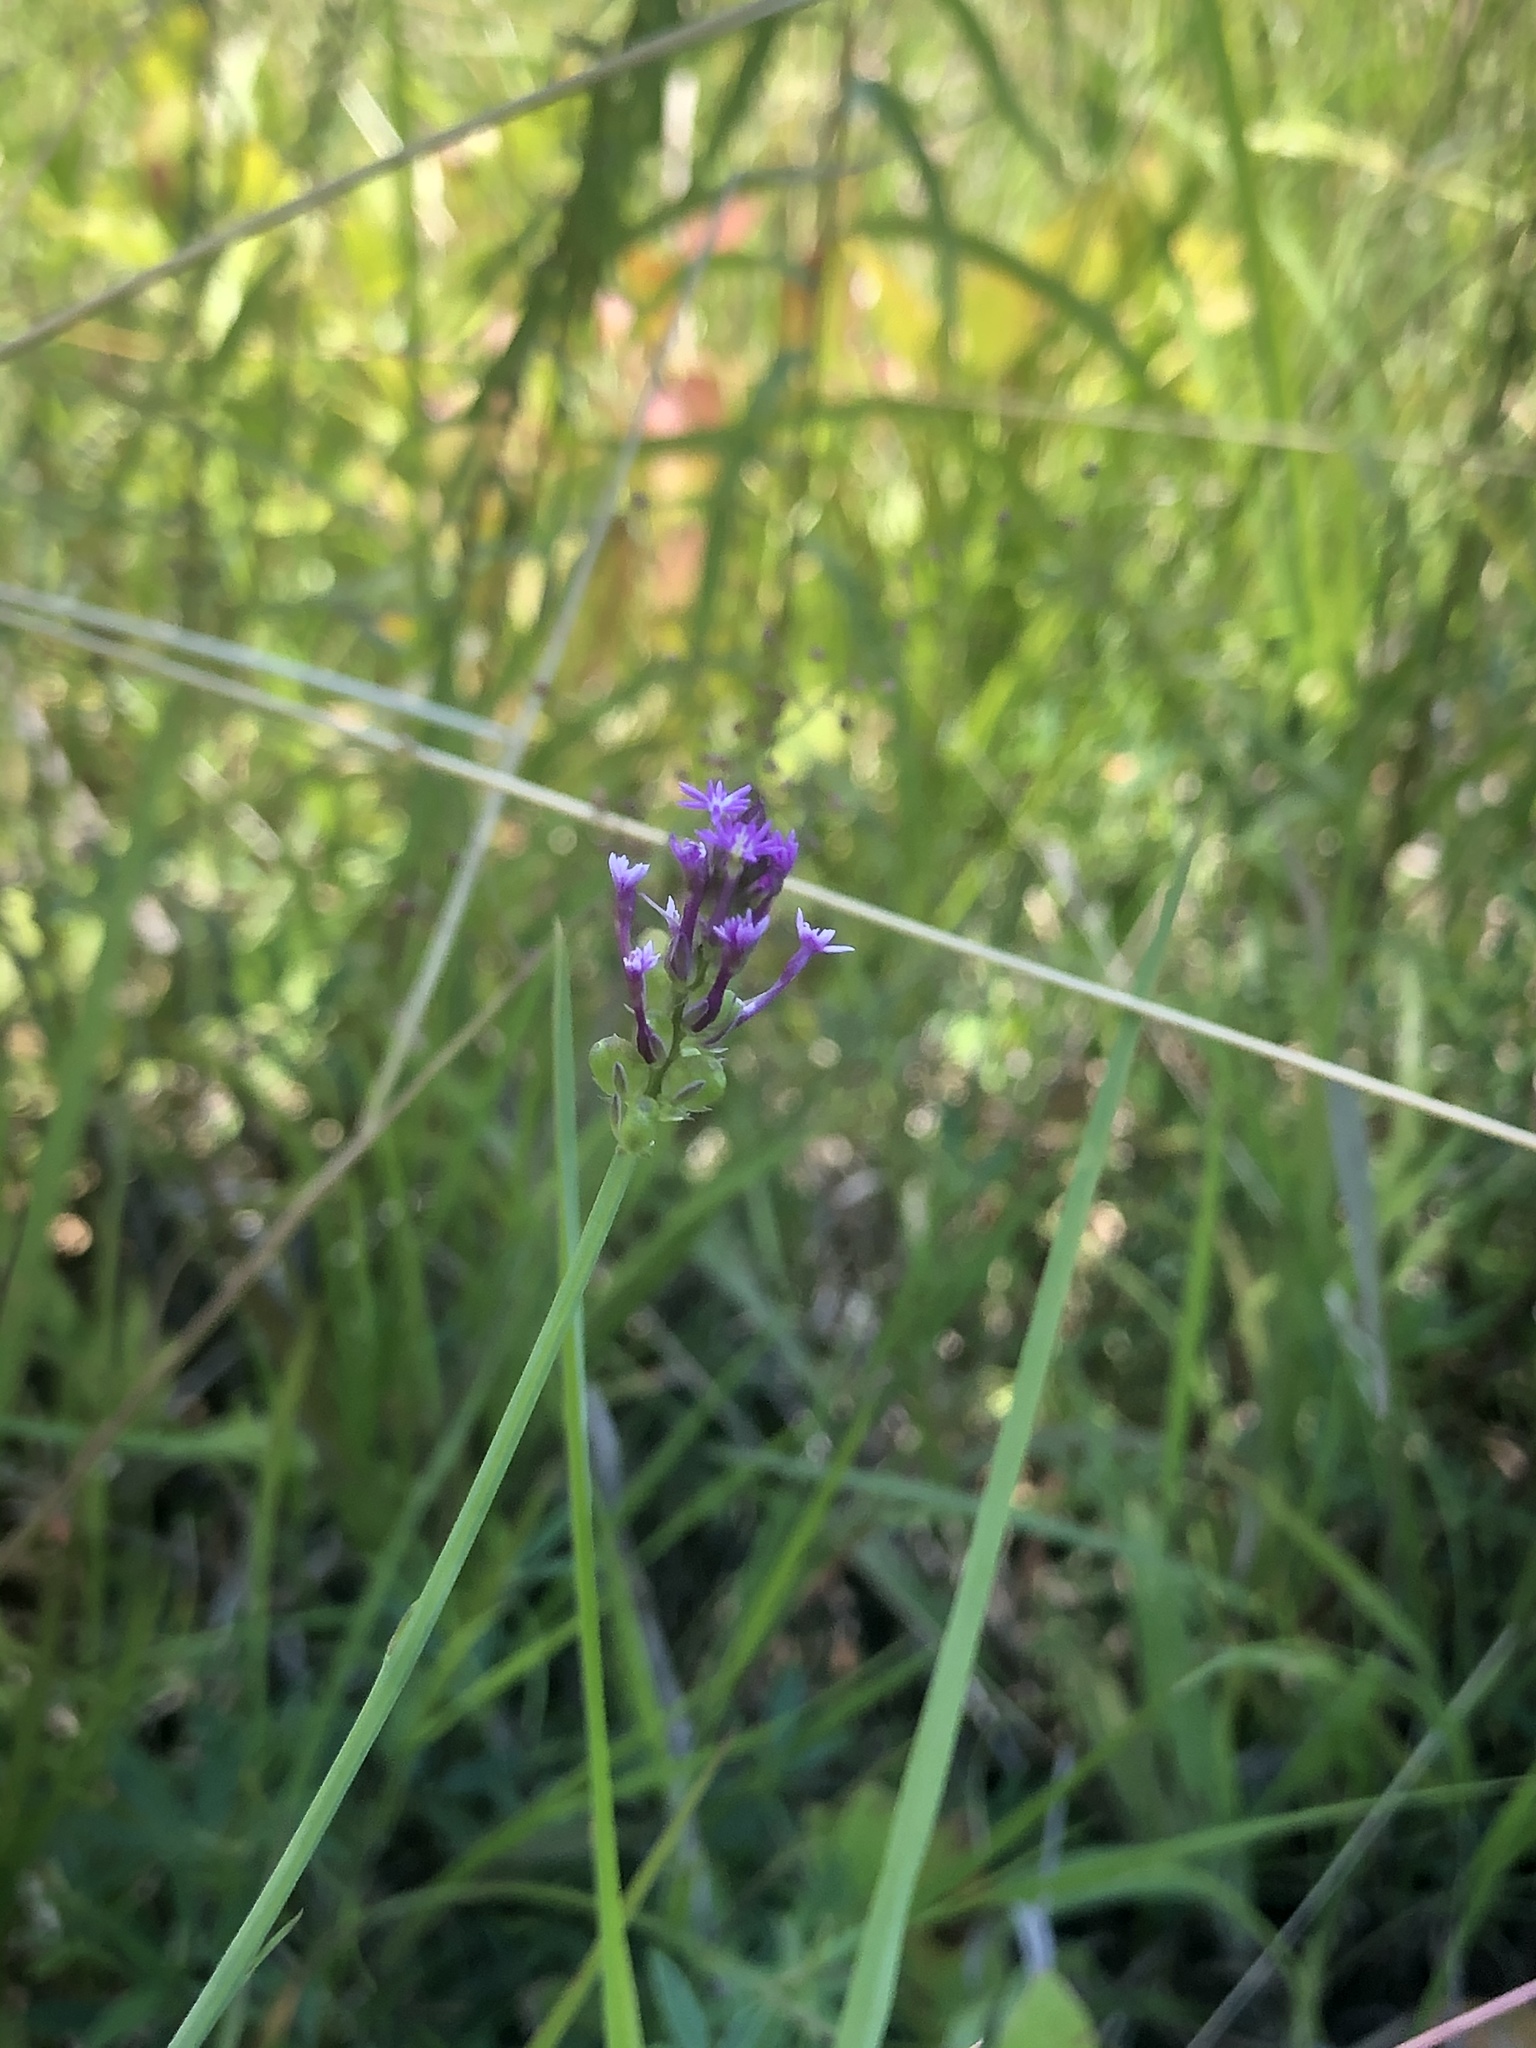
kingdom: Plantae
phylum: Tracheophyta
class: Magnoliopsida
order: Fabales
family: Polygalaceae
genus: Polygala
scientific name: Polygala incarnata
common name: Pink milkwort
